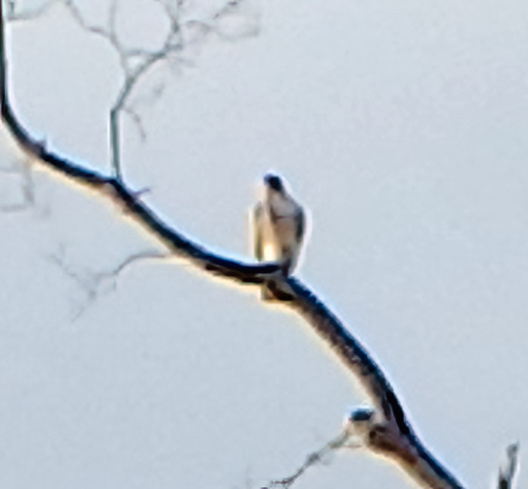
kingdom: Animalia
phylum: Chordata
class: Aves
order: Accipitriformes
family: Accipitridae
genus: Buteo
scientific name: Buteo jamaicensis
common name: Red-tailed hawk
